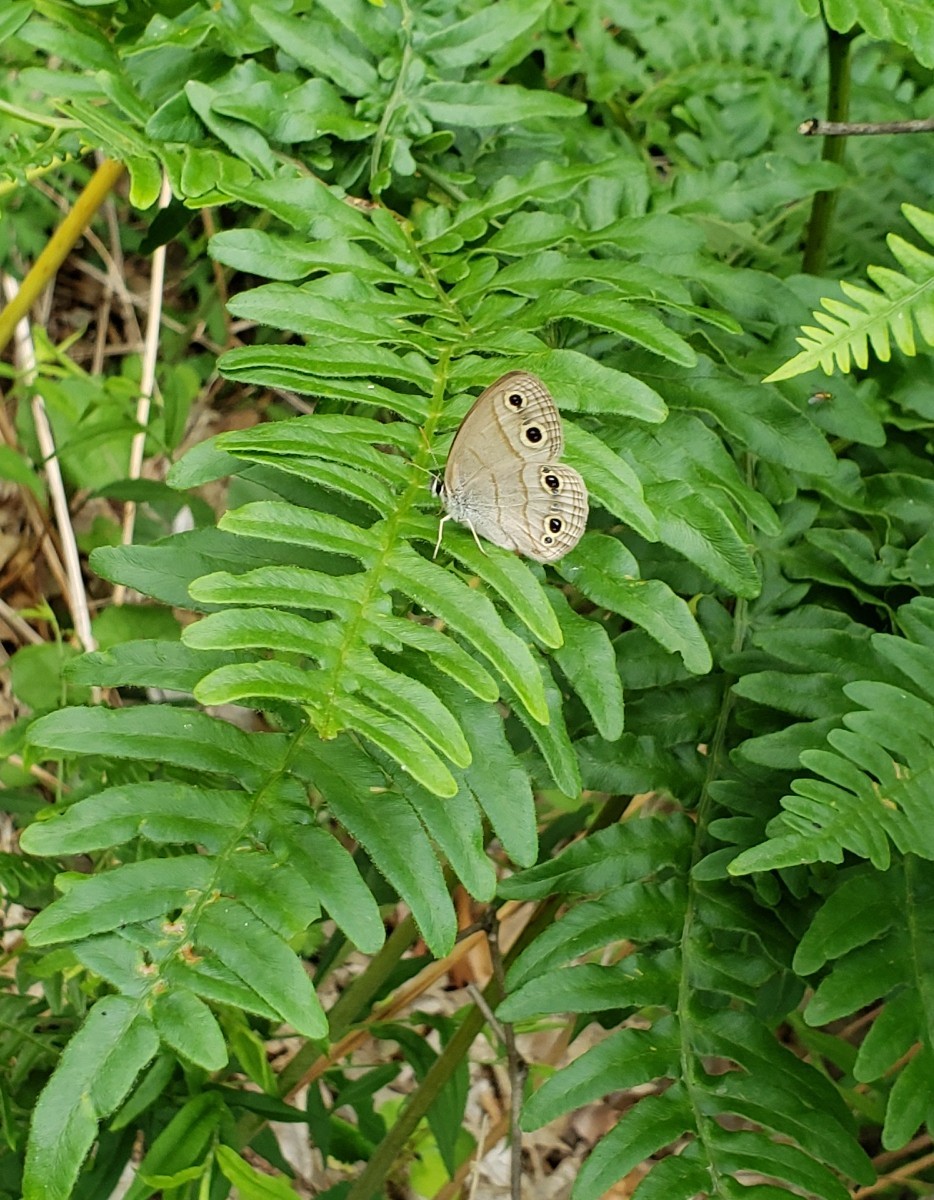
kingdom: Animalia
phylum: Arthropoda
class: Insecta
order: Lepidoptera
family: Nymphalidae
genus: Euptychia
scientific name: Euptychia cymela
